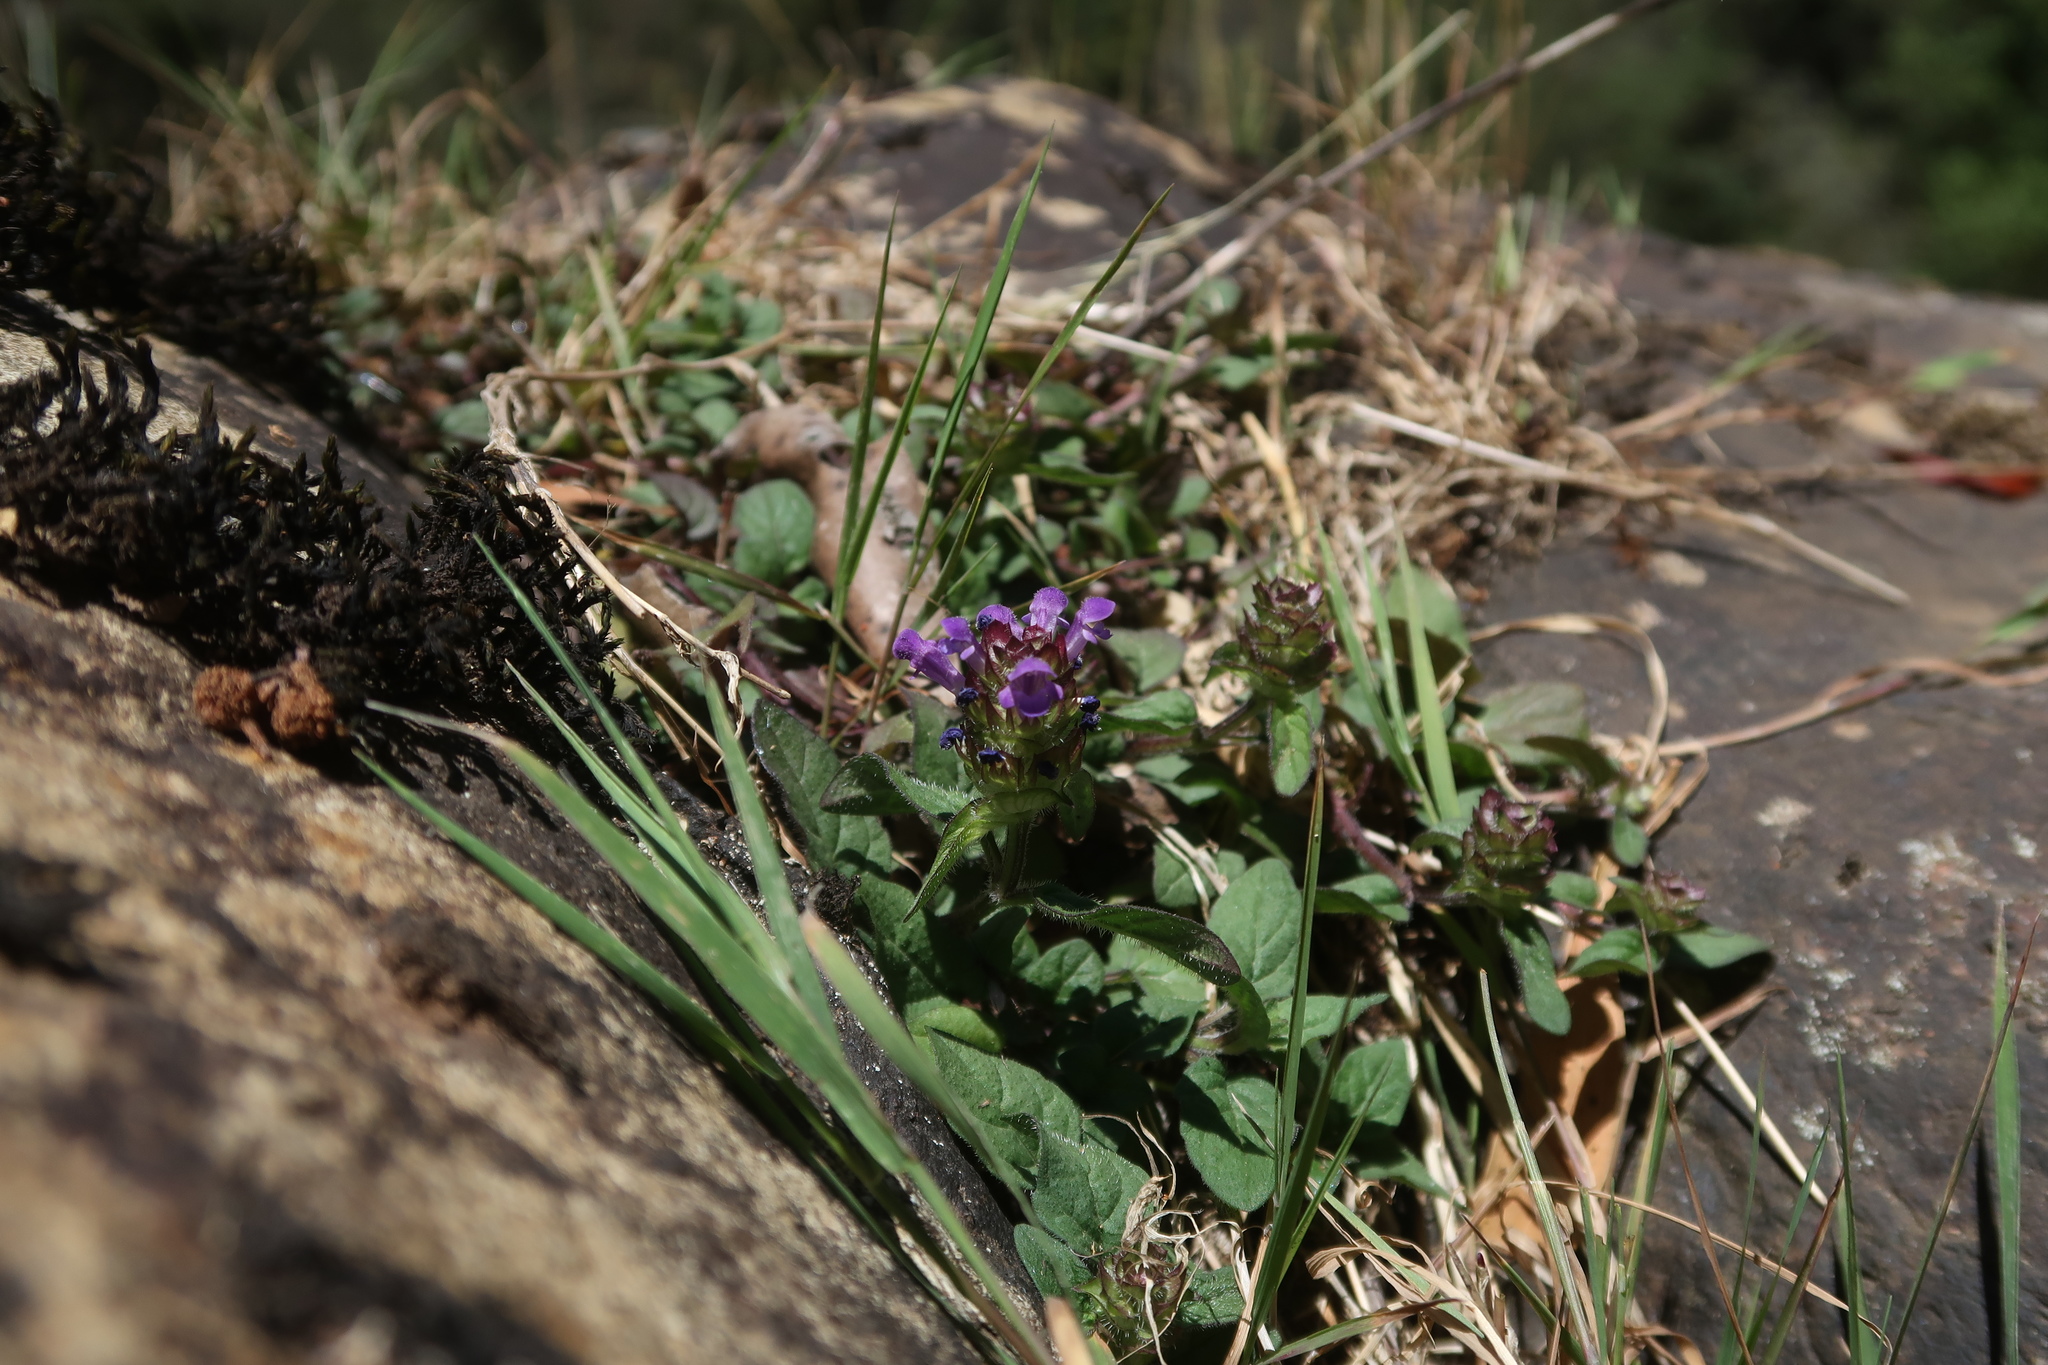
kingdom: Plantae
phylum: Tracheophyta
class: Magnoliopsida
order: Lamiales
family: Lamiaceae
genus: Prunella
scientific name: Prunella vulgaris
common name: Heal-all
